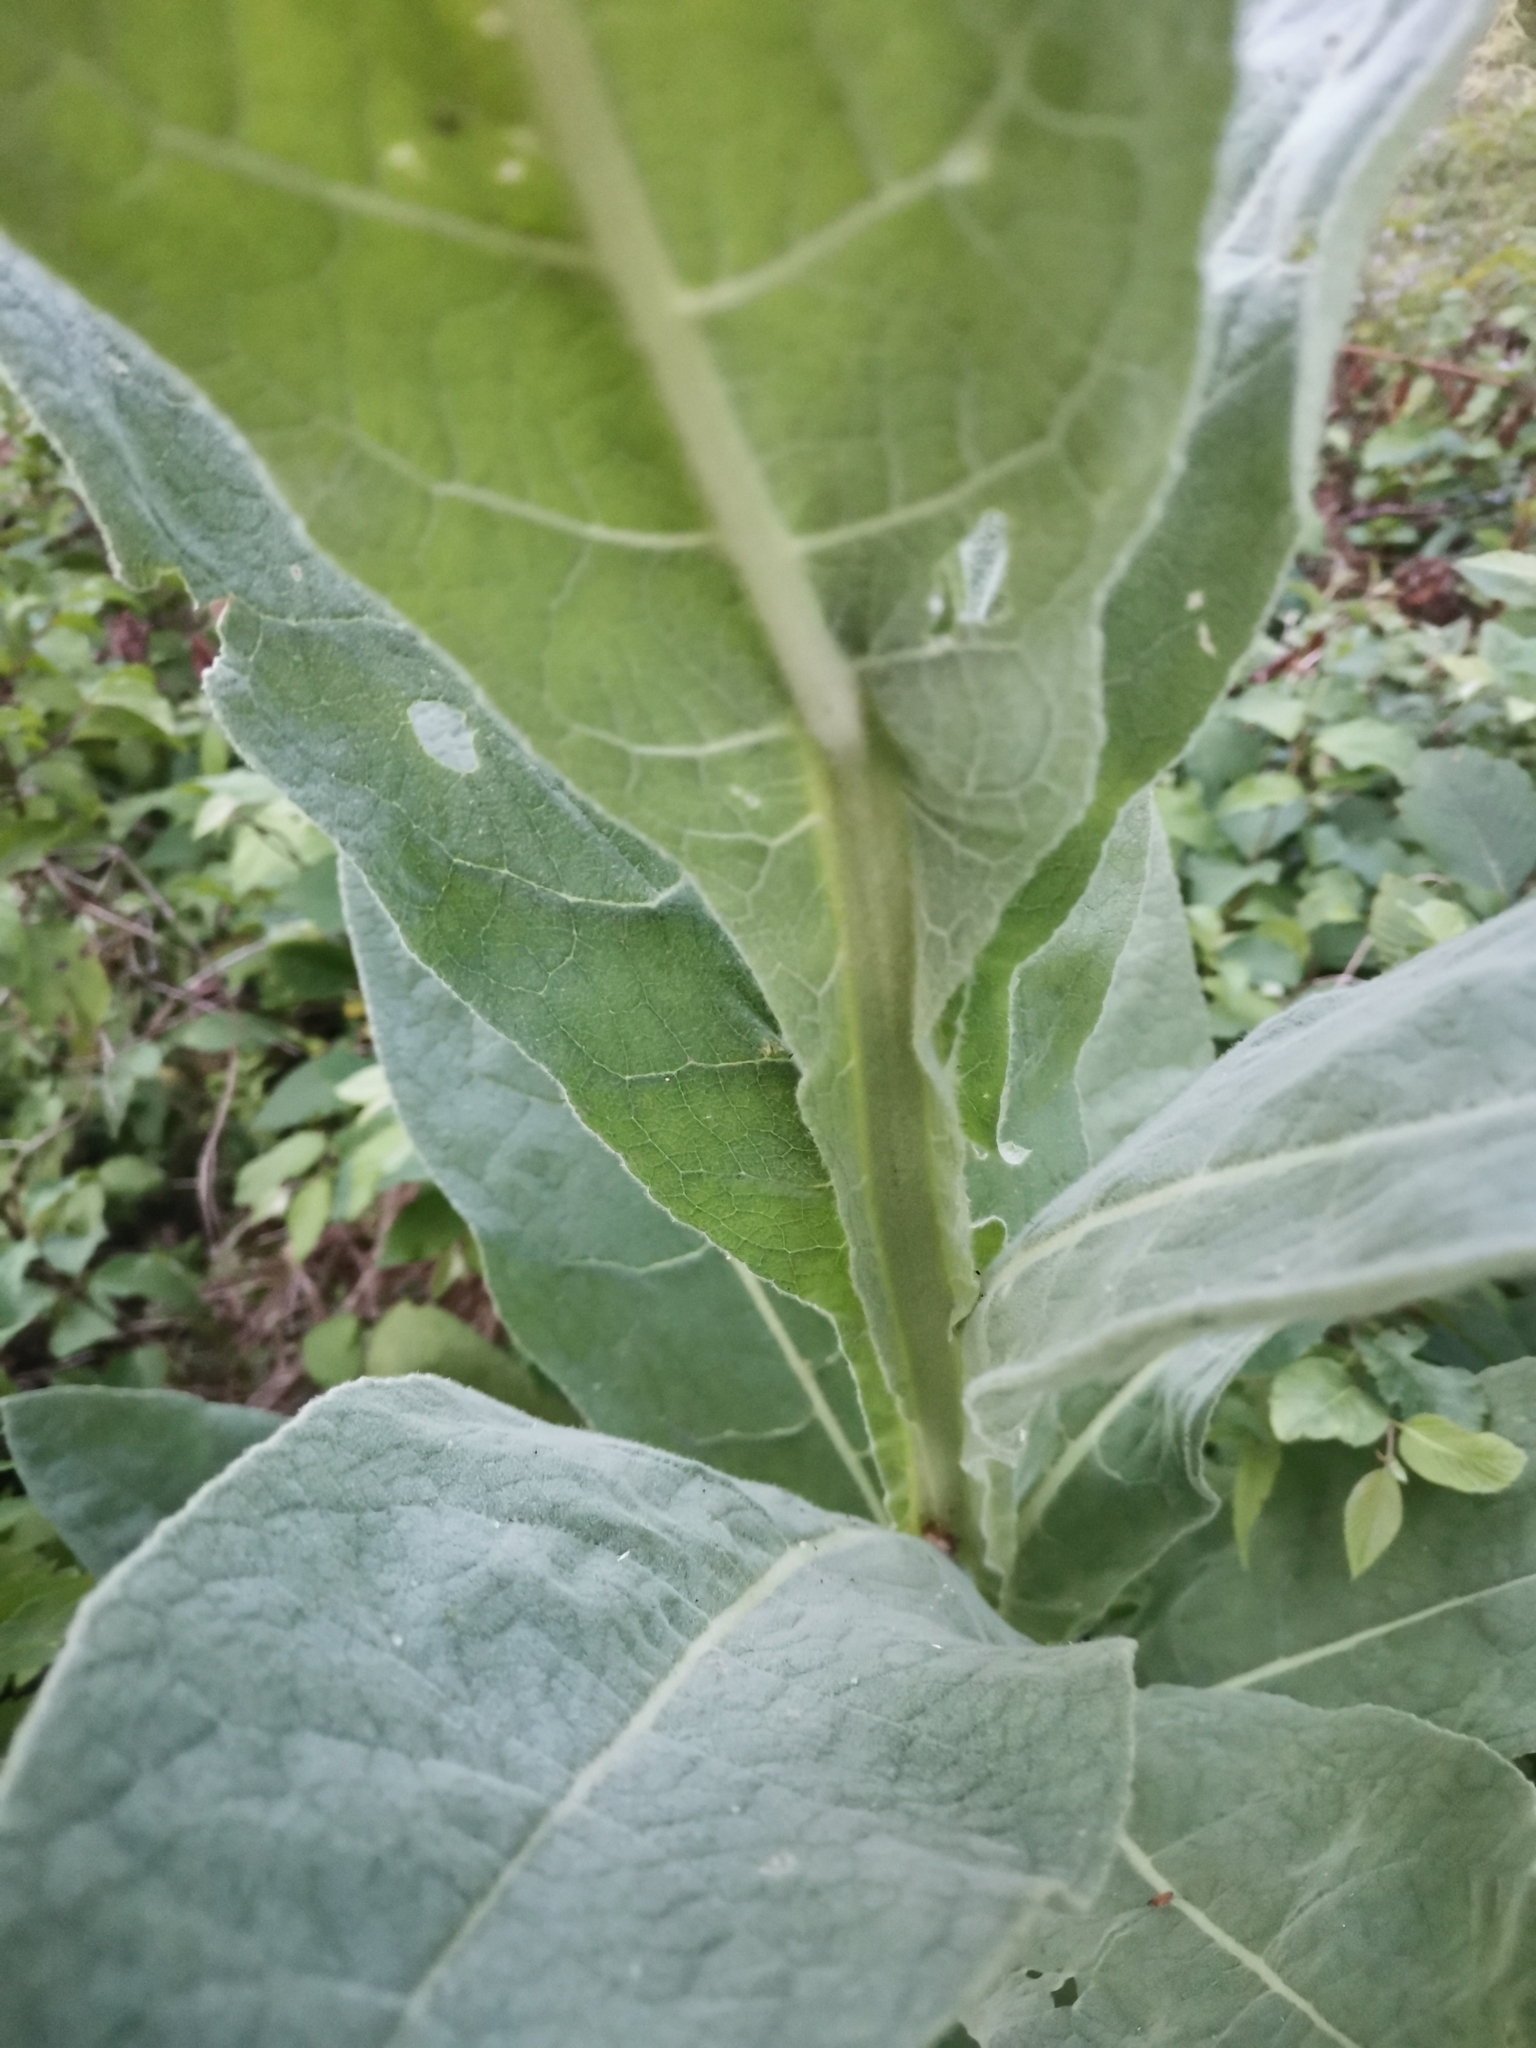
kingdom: Plantae
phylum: Tracheophyta
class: Magnoliopsida
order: Lamiales
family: Scrophulariaceae
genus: Verbascum
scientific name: Verbascum thapsus
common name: Common mullein
